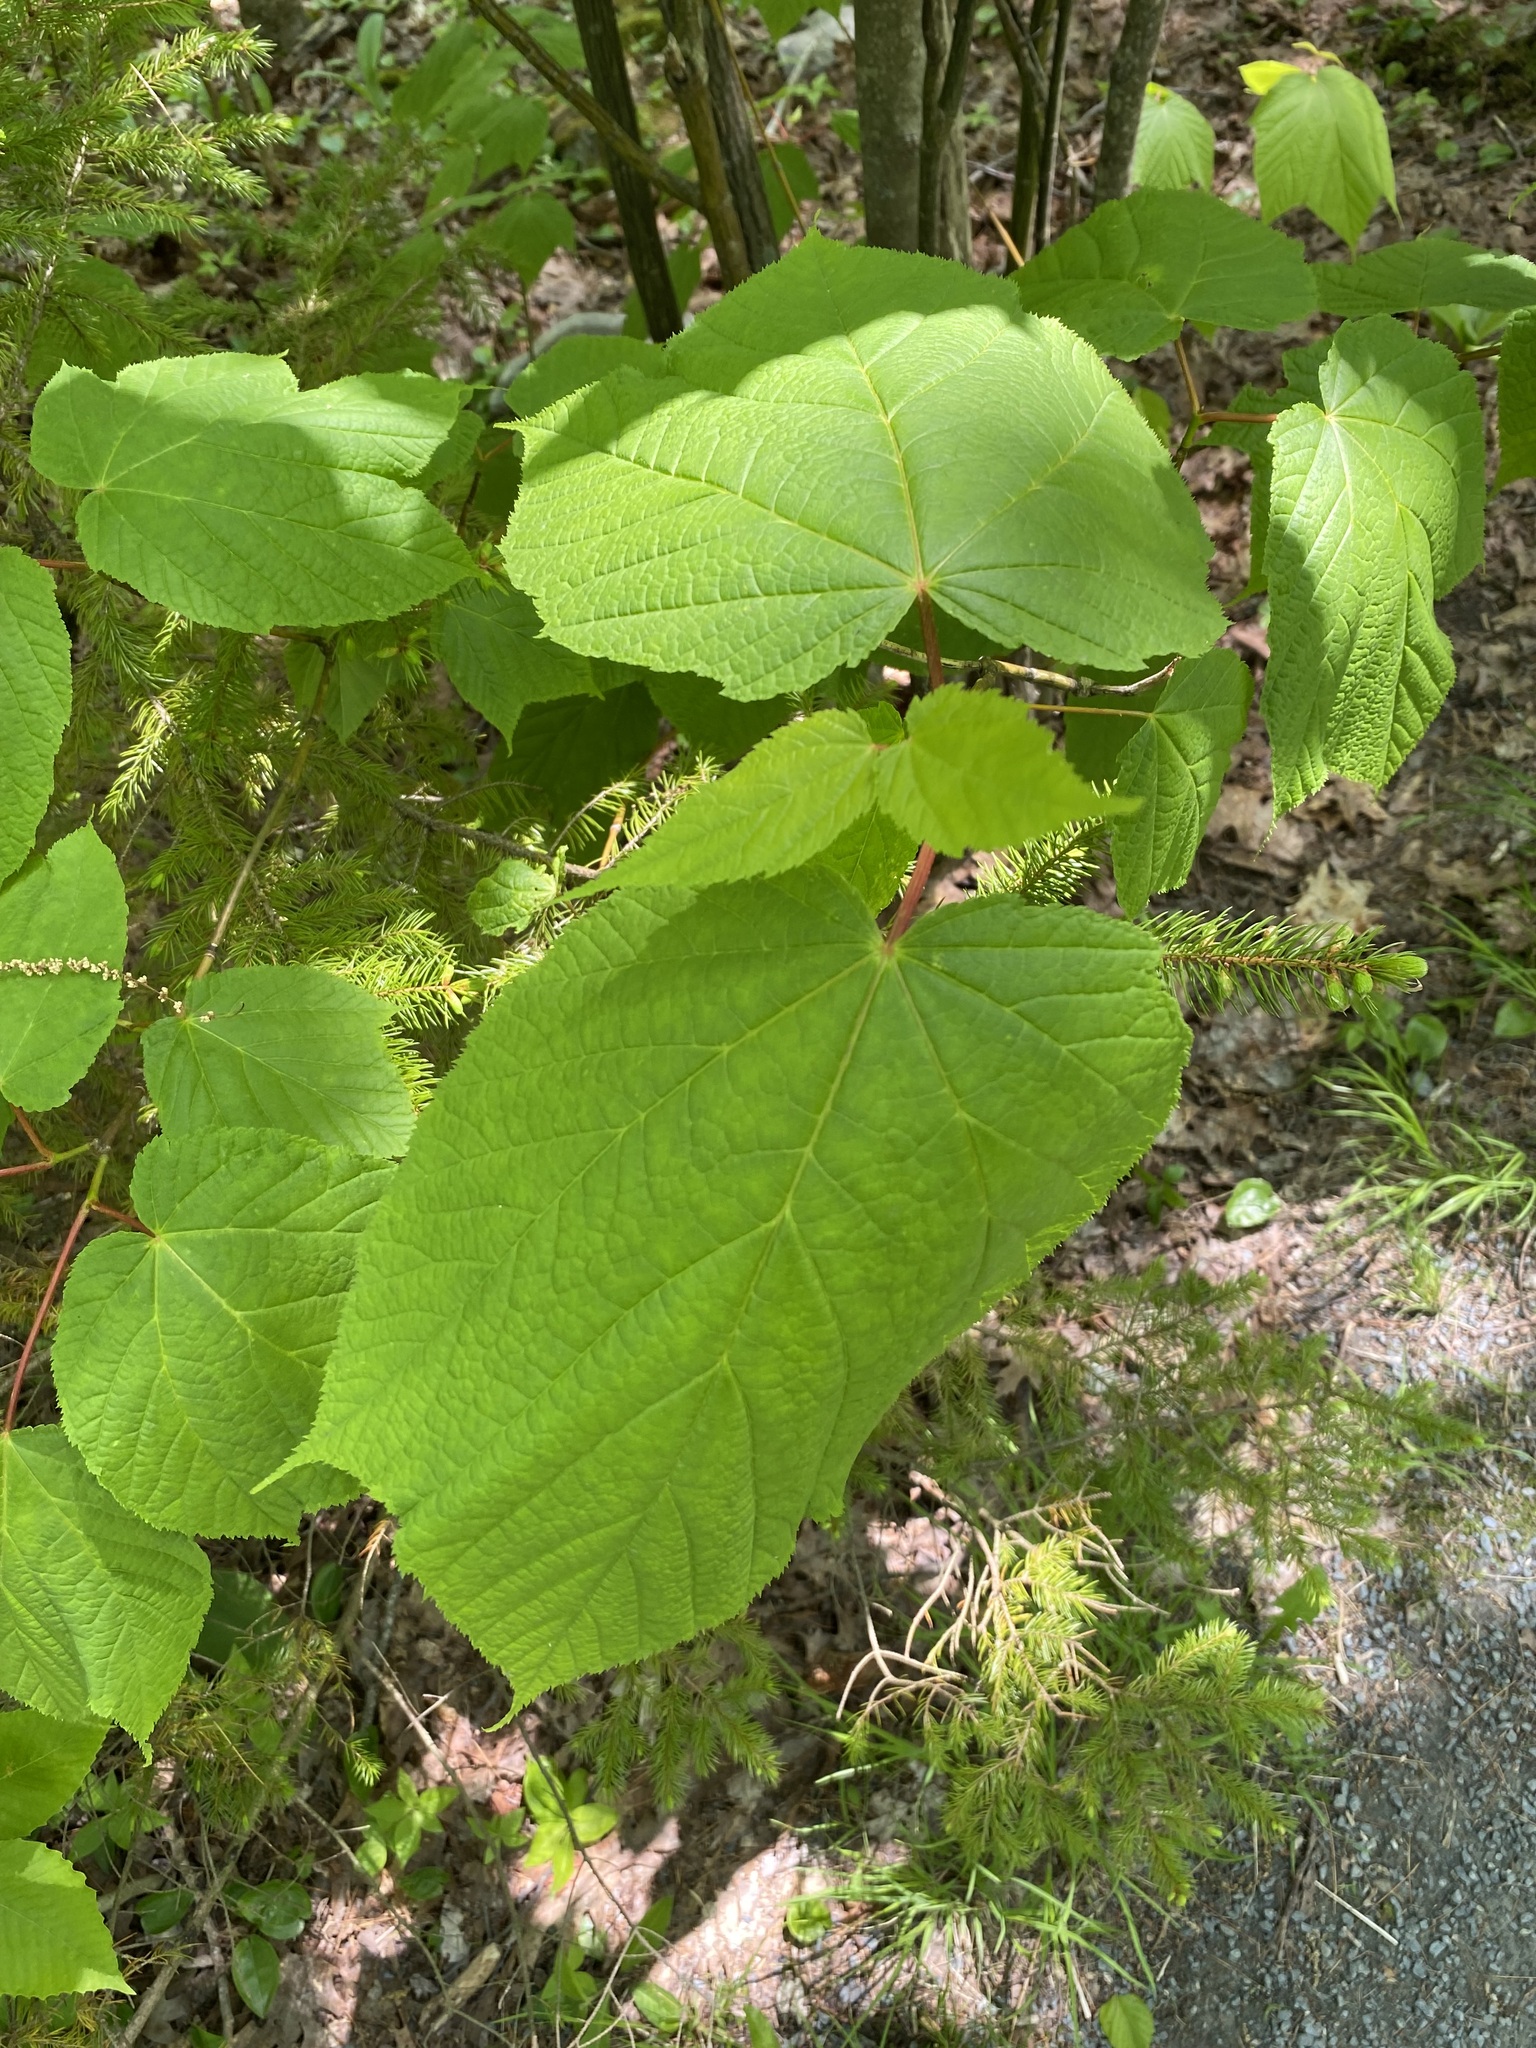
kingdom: Plantae
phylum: Tracheophyta
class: Magnoliopsida
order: Sapindales
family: Sapindaceae
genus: Acer
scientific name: Acer pensylvanicum
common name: Moosewood
